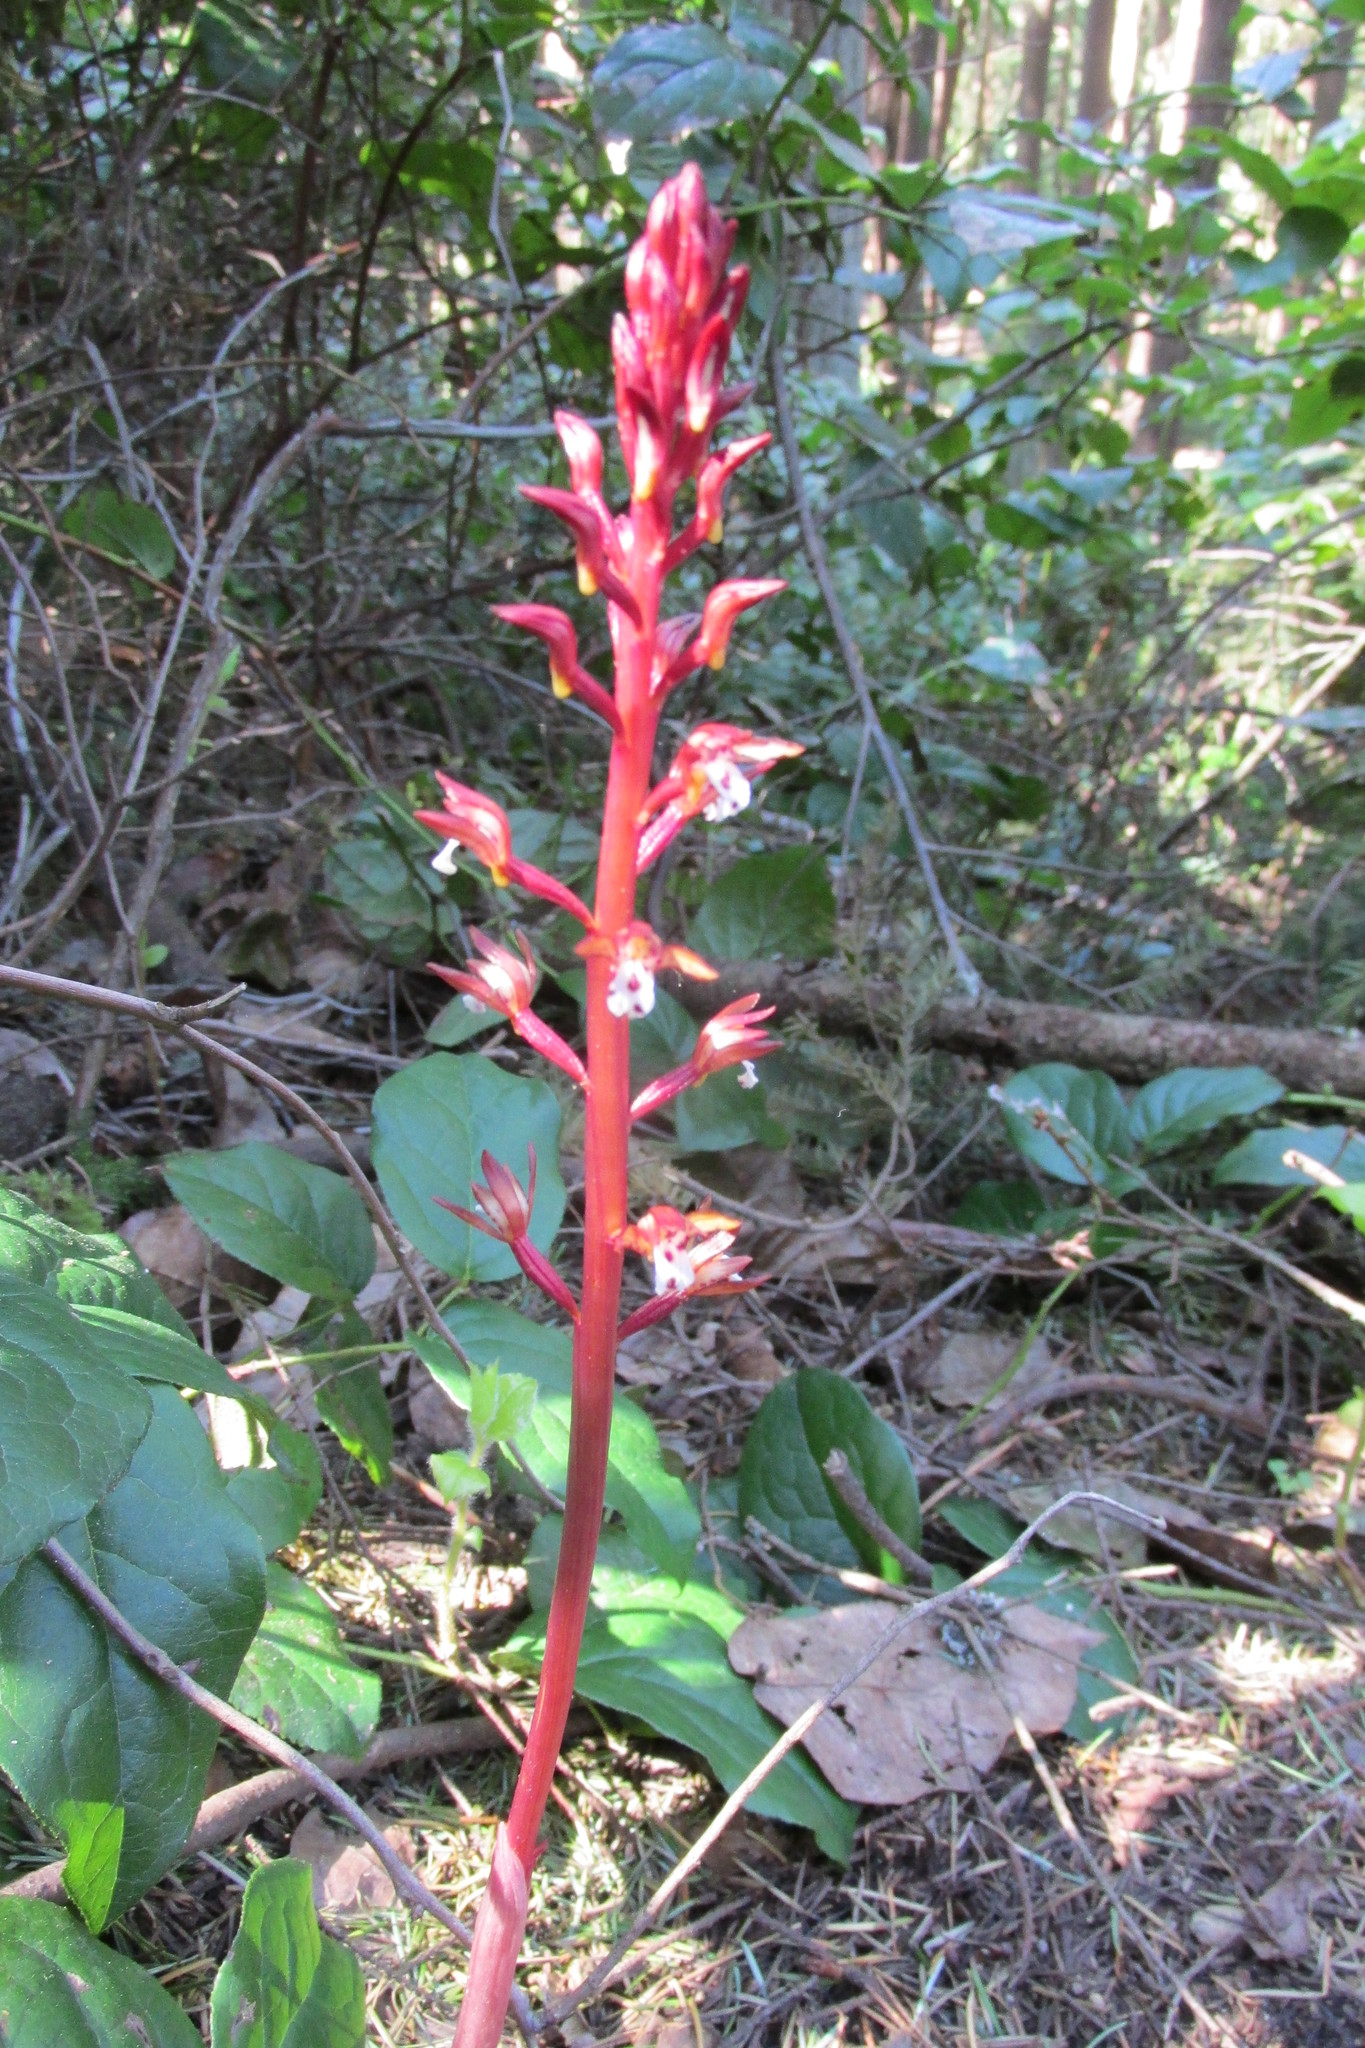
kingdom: Plantae
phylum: Tracheophyta
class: Liliopsida
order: Asparagales
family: Orchidaceae
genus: Corallorhiza
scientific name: Corallorhiza maculata
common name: Spotted coralroot
